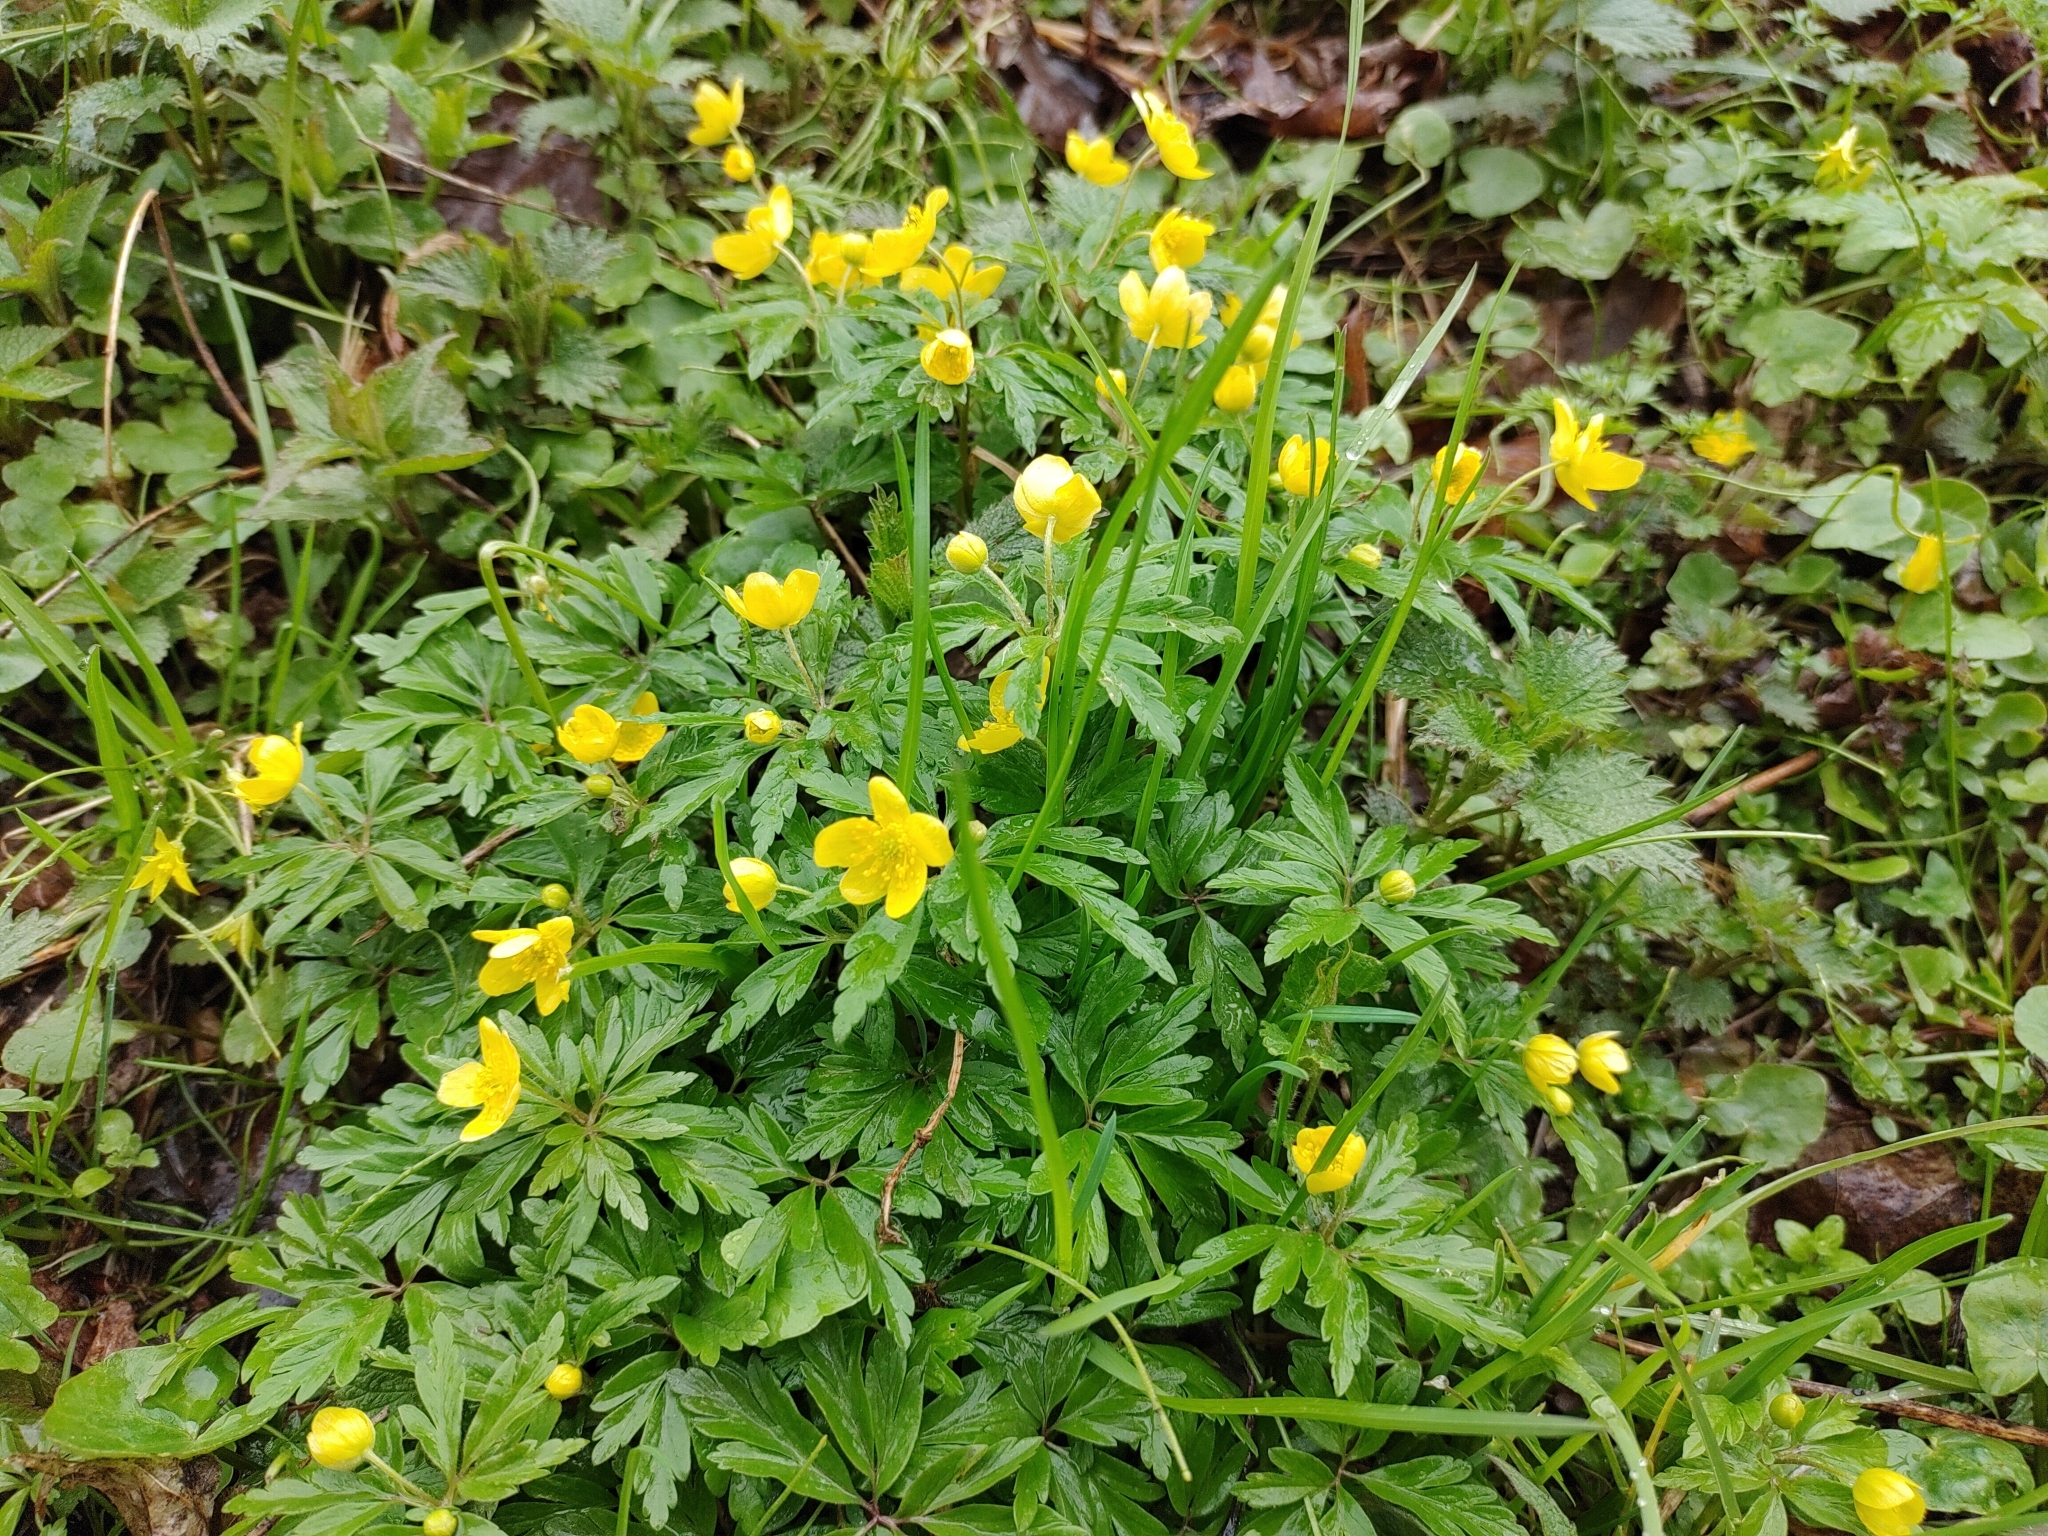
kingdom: Plantae
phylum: Tracheophyta
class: Magnoliopsida
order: Ranunculales
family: Ranunculaceae
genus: Anemone
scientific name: Anemone ranunculoides
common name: Yellow anemone
